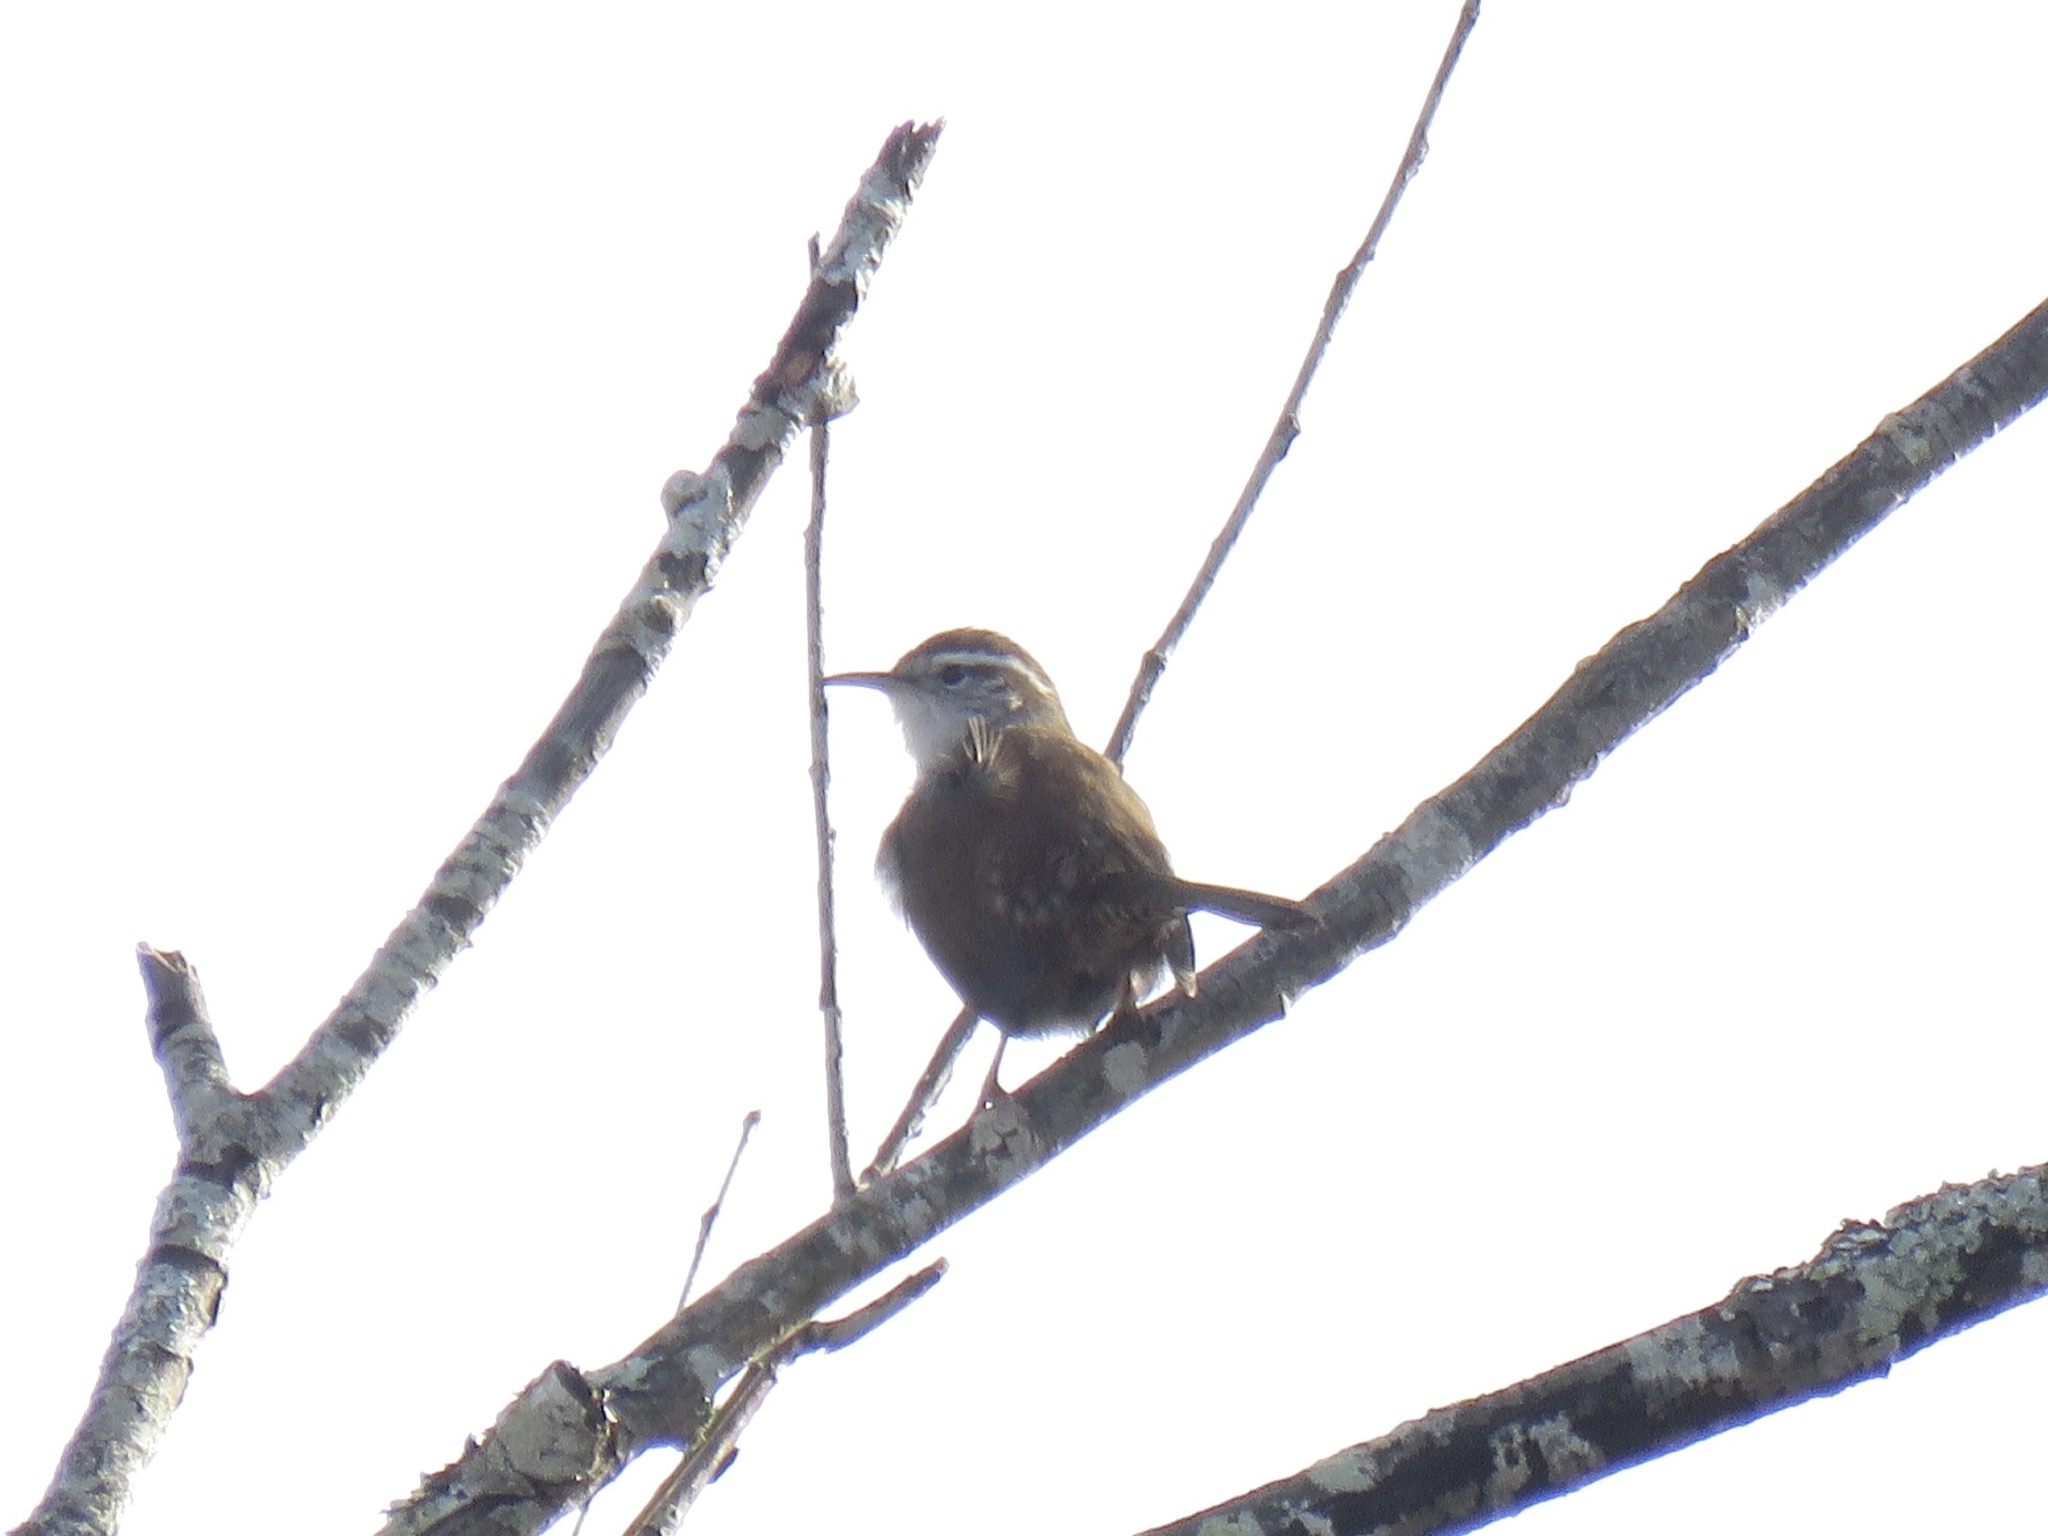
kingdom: Animalia
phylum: Chordata
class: Aves
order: Passeriformes
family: Troglodytidae
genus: Thryomanes
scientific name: Thryomanes bewickii
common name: Bewick's wren
